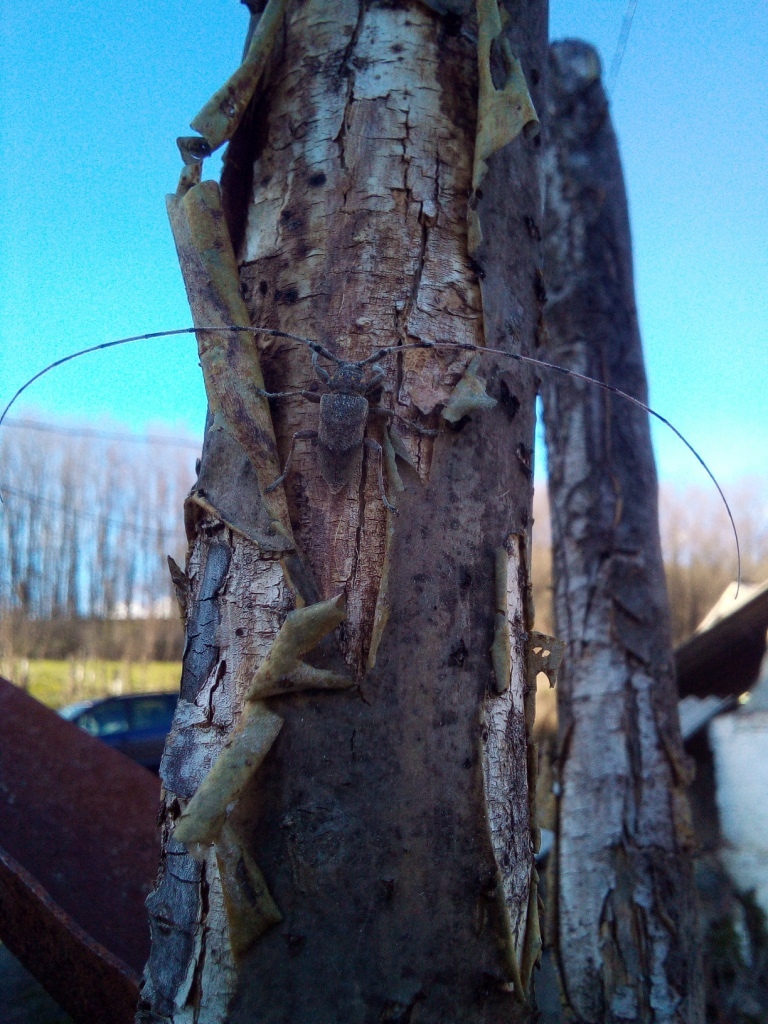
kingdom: Animalia
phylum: Arthropoda
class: Insecta
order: Coleoptera
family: Cerambycidae
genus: Acanthocinus
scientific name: Acanthocinus aedilis
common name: Timberman beetle
